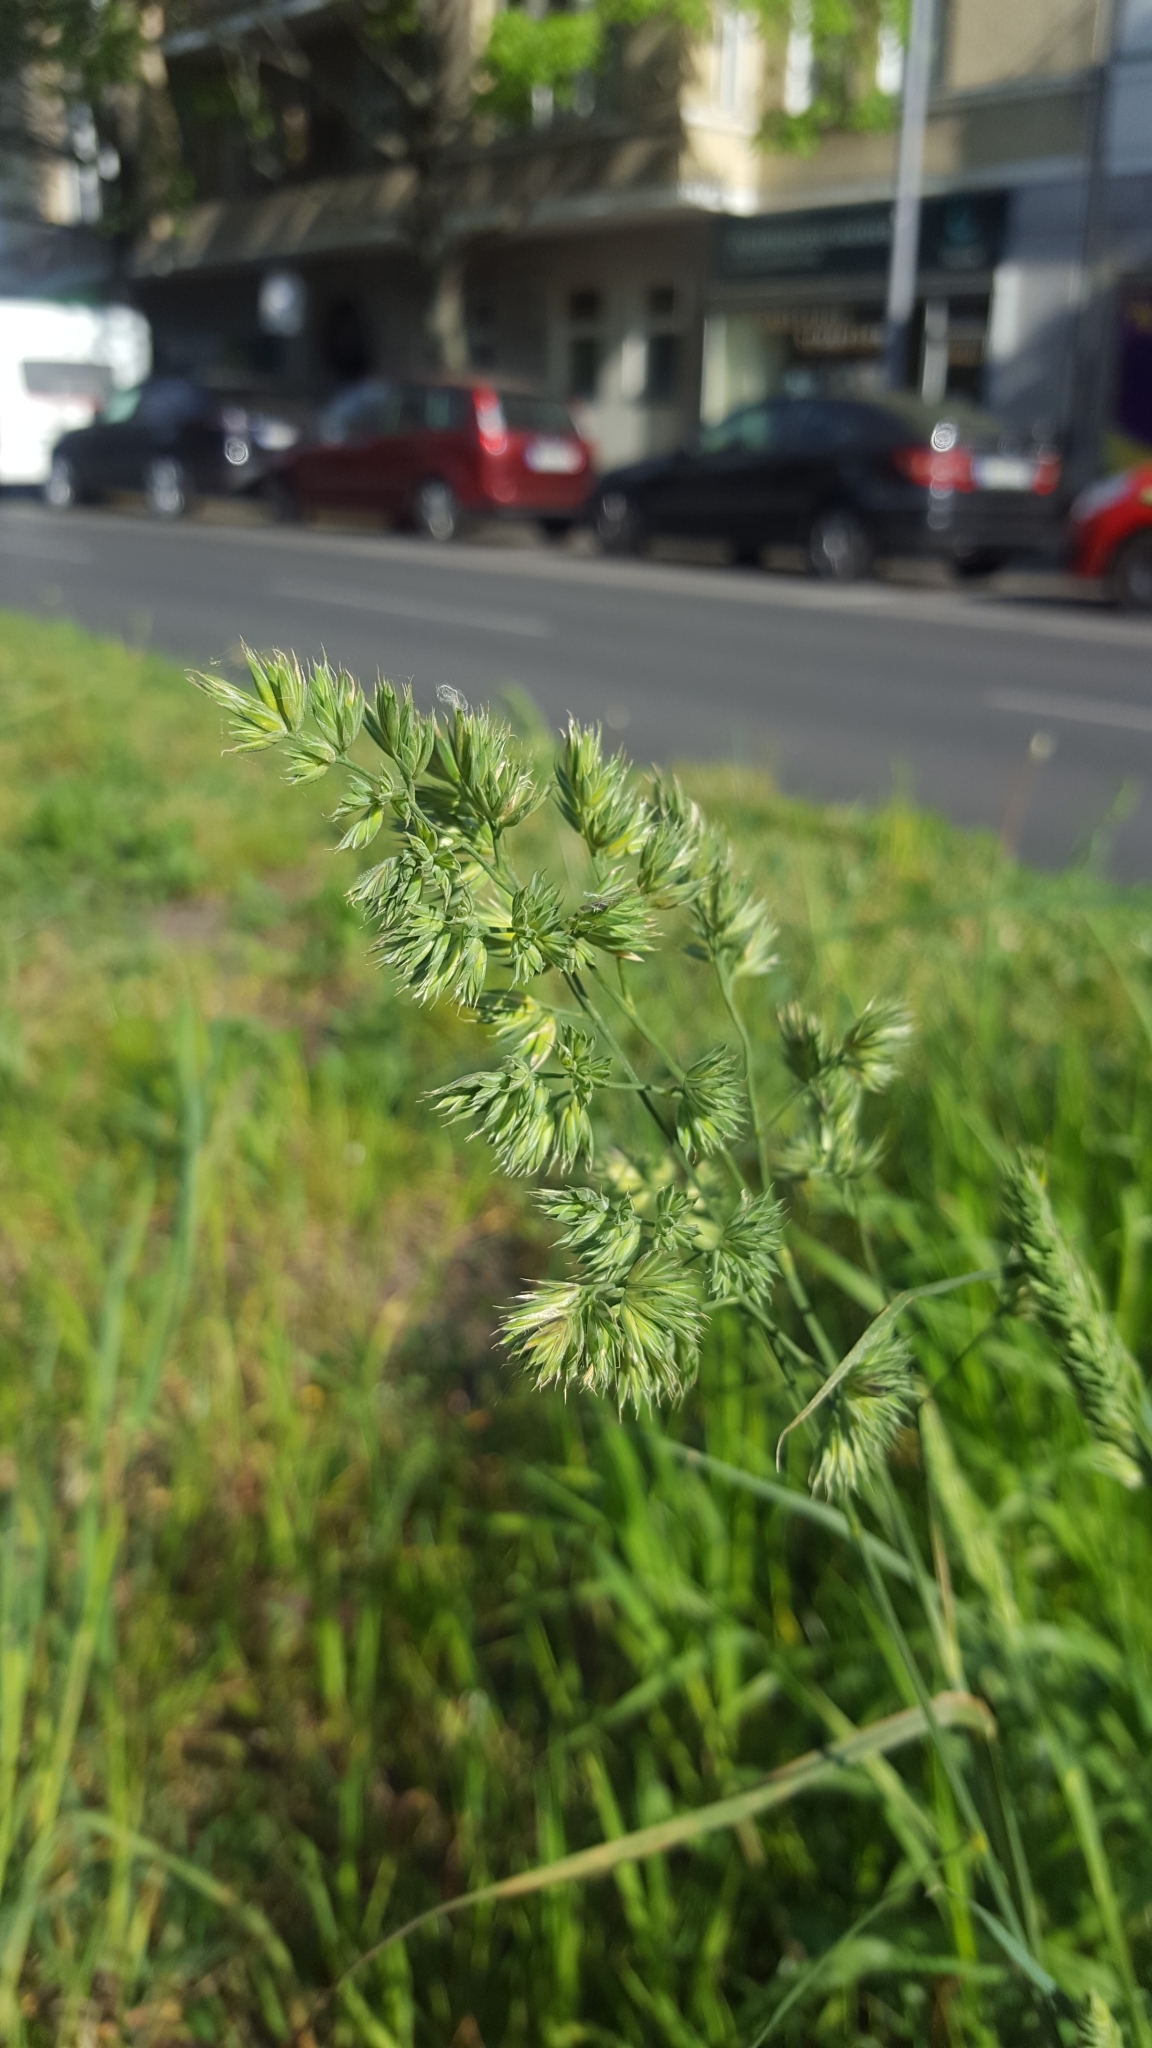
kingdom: Plantae
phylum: Tracheophyta
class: Liliopsida
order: Poales
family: Poaceae
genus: Dactylis
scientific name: Dactylis glomerata
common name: Orchardgrass
